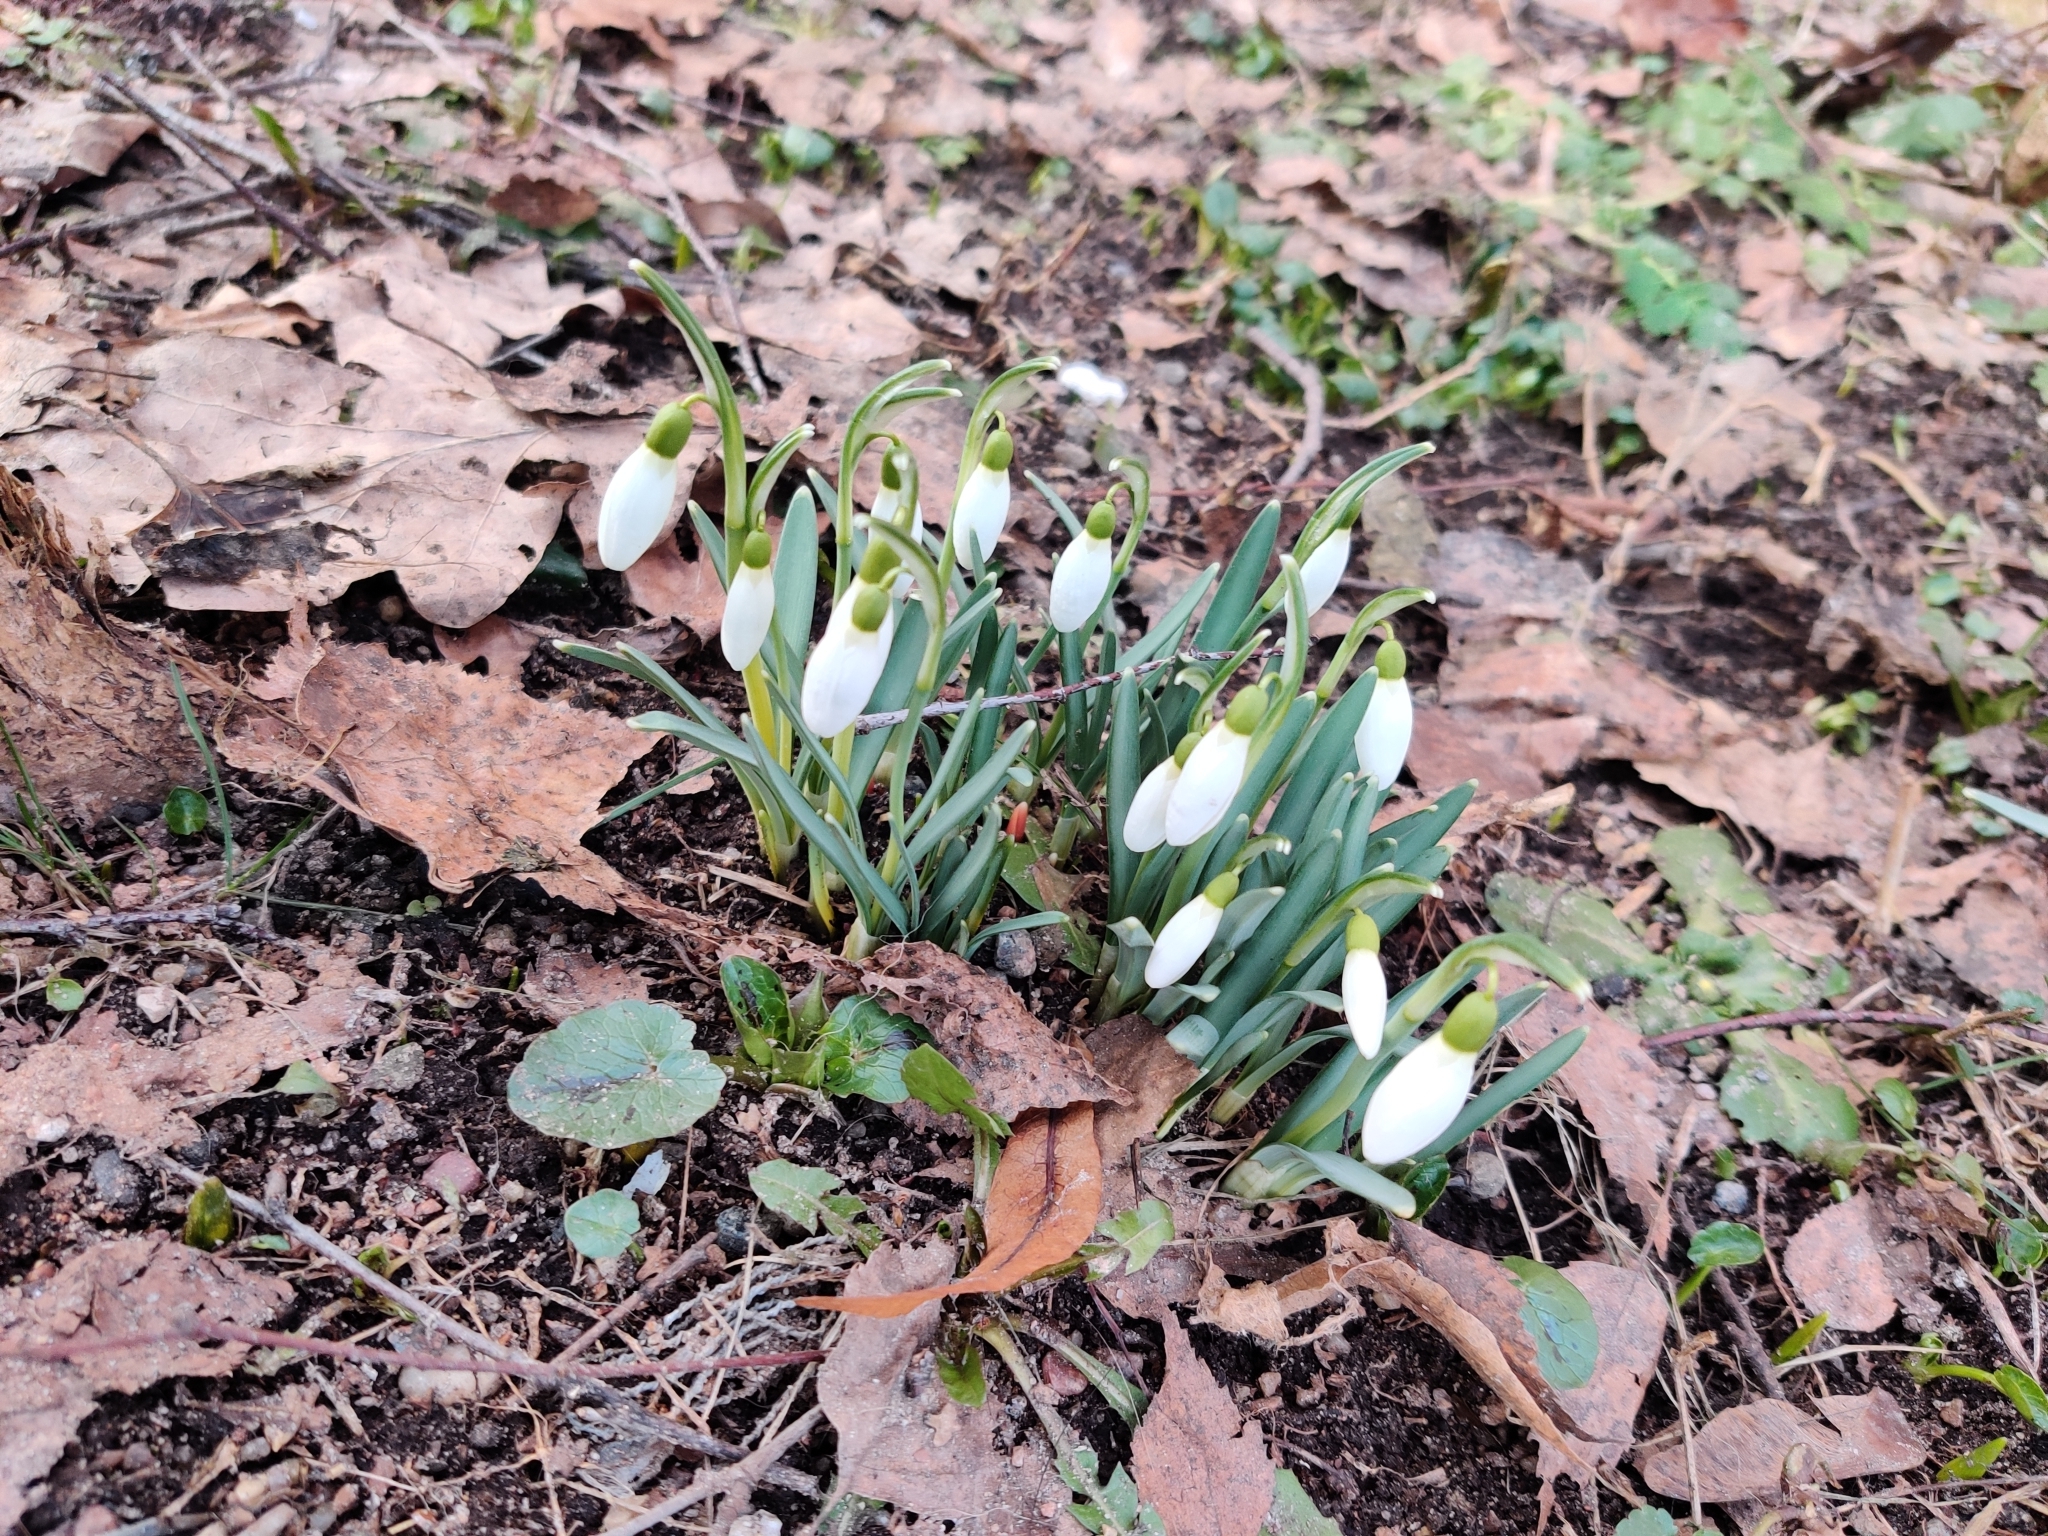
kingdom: Plantae
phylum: Tracheophyta
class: Liliopsida
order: Asparagales
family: Amaryllidaceae
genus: Galanthus
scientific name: Galanthus nivalis
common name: Snowdrop
